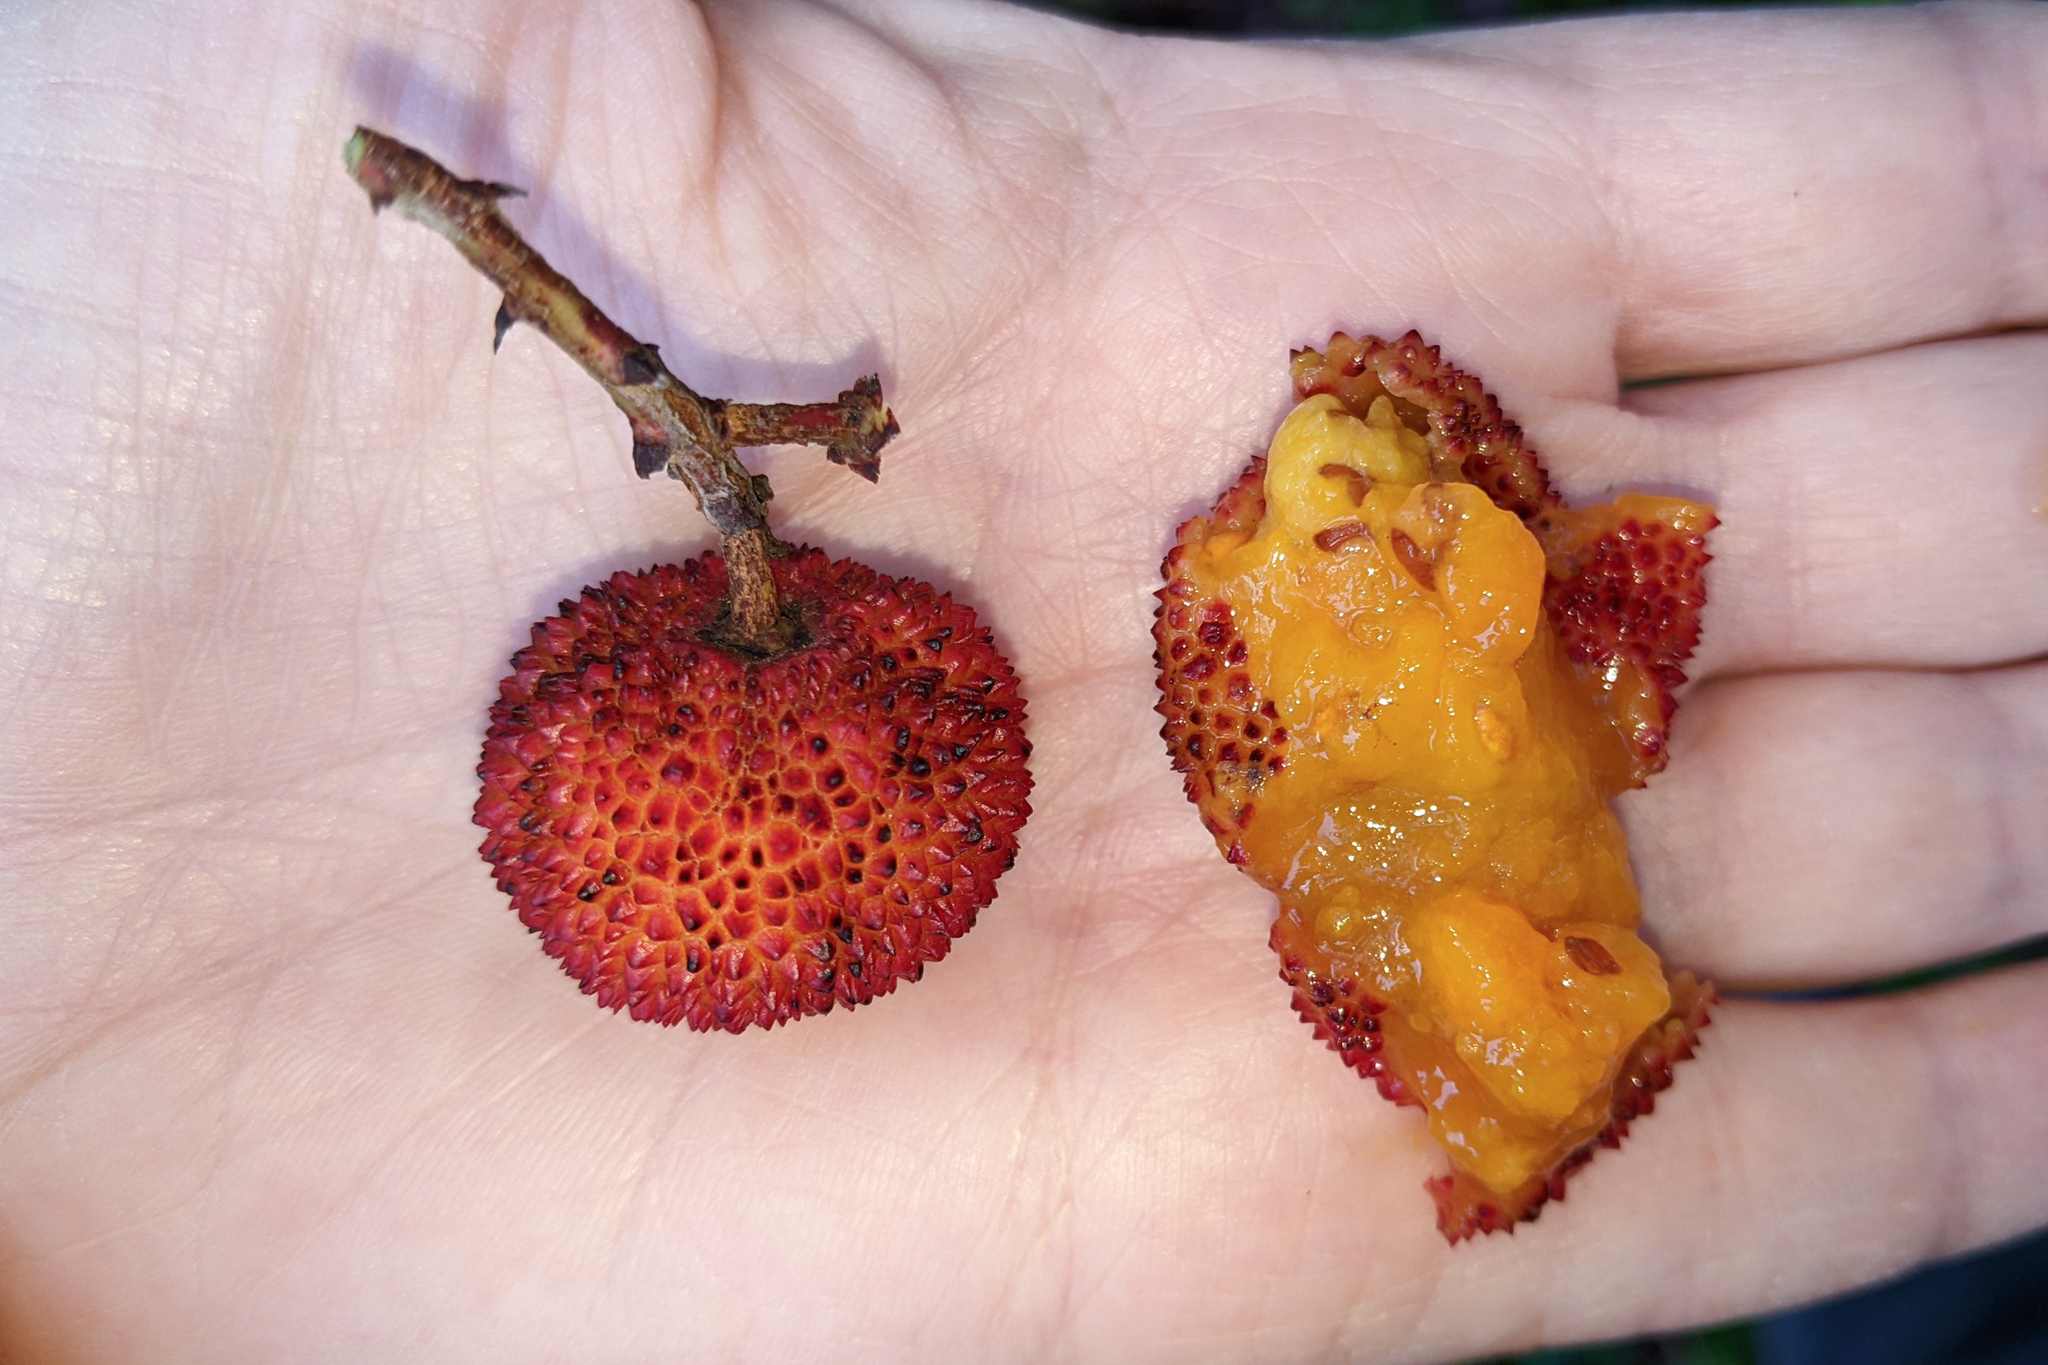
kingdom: Plantae
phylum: Tracheophyta
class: Magnoliopsida
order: Ericales
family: Ericaceae
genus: Arbutus
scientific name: Arbutus unedo
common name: Strawberry-tree
